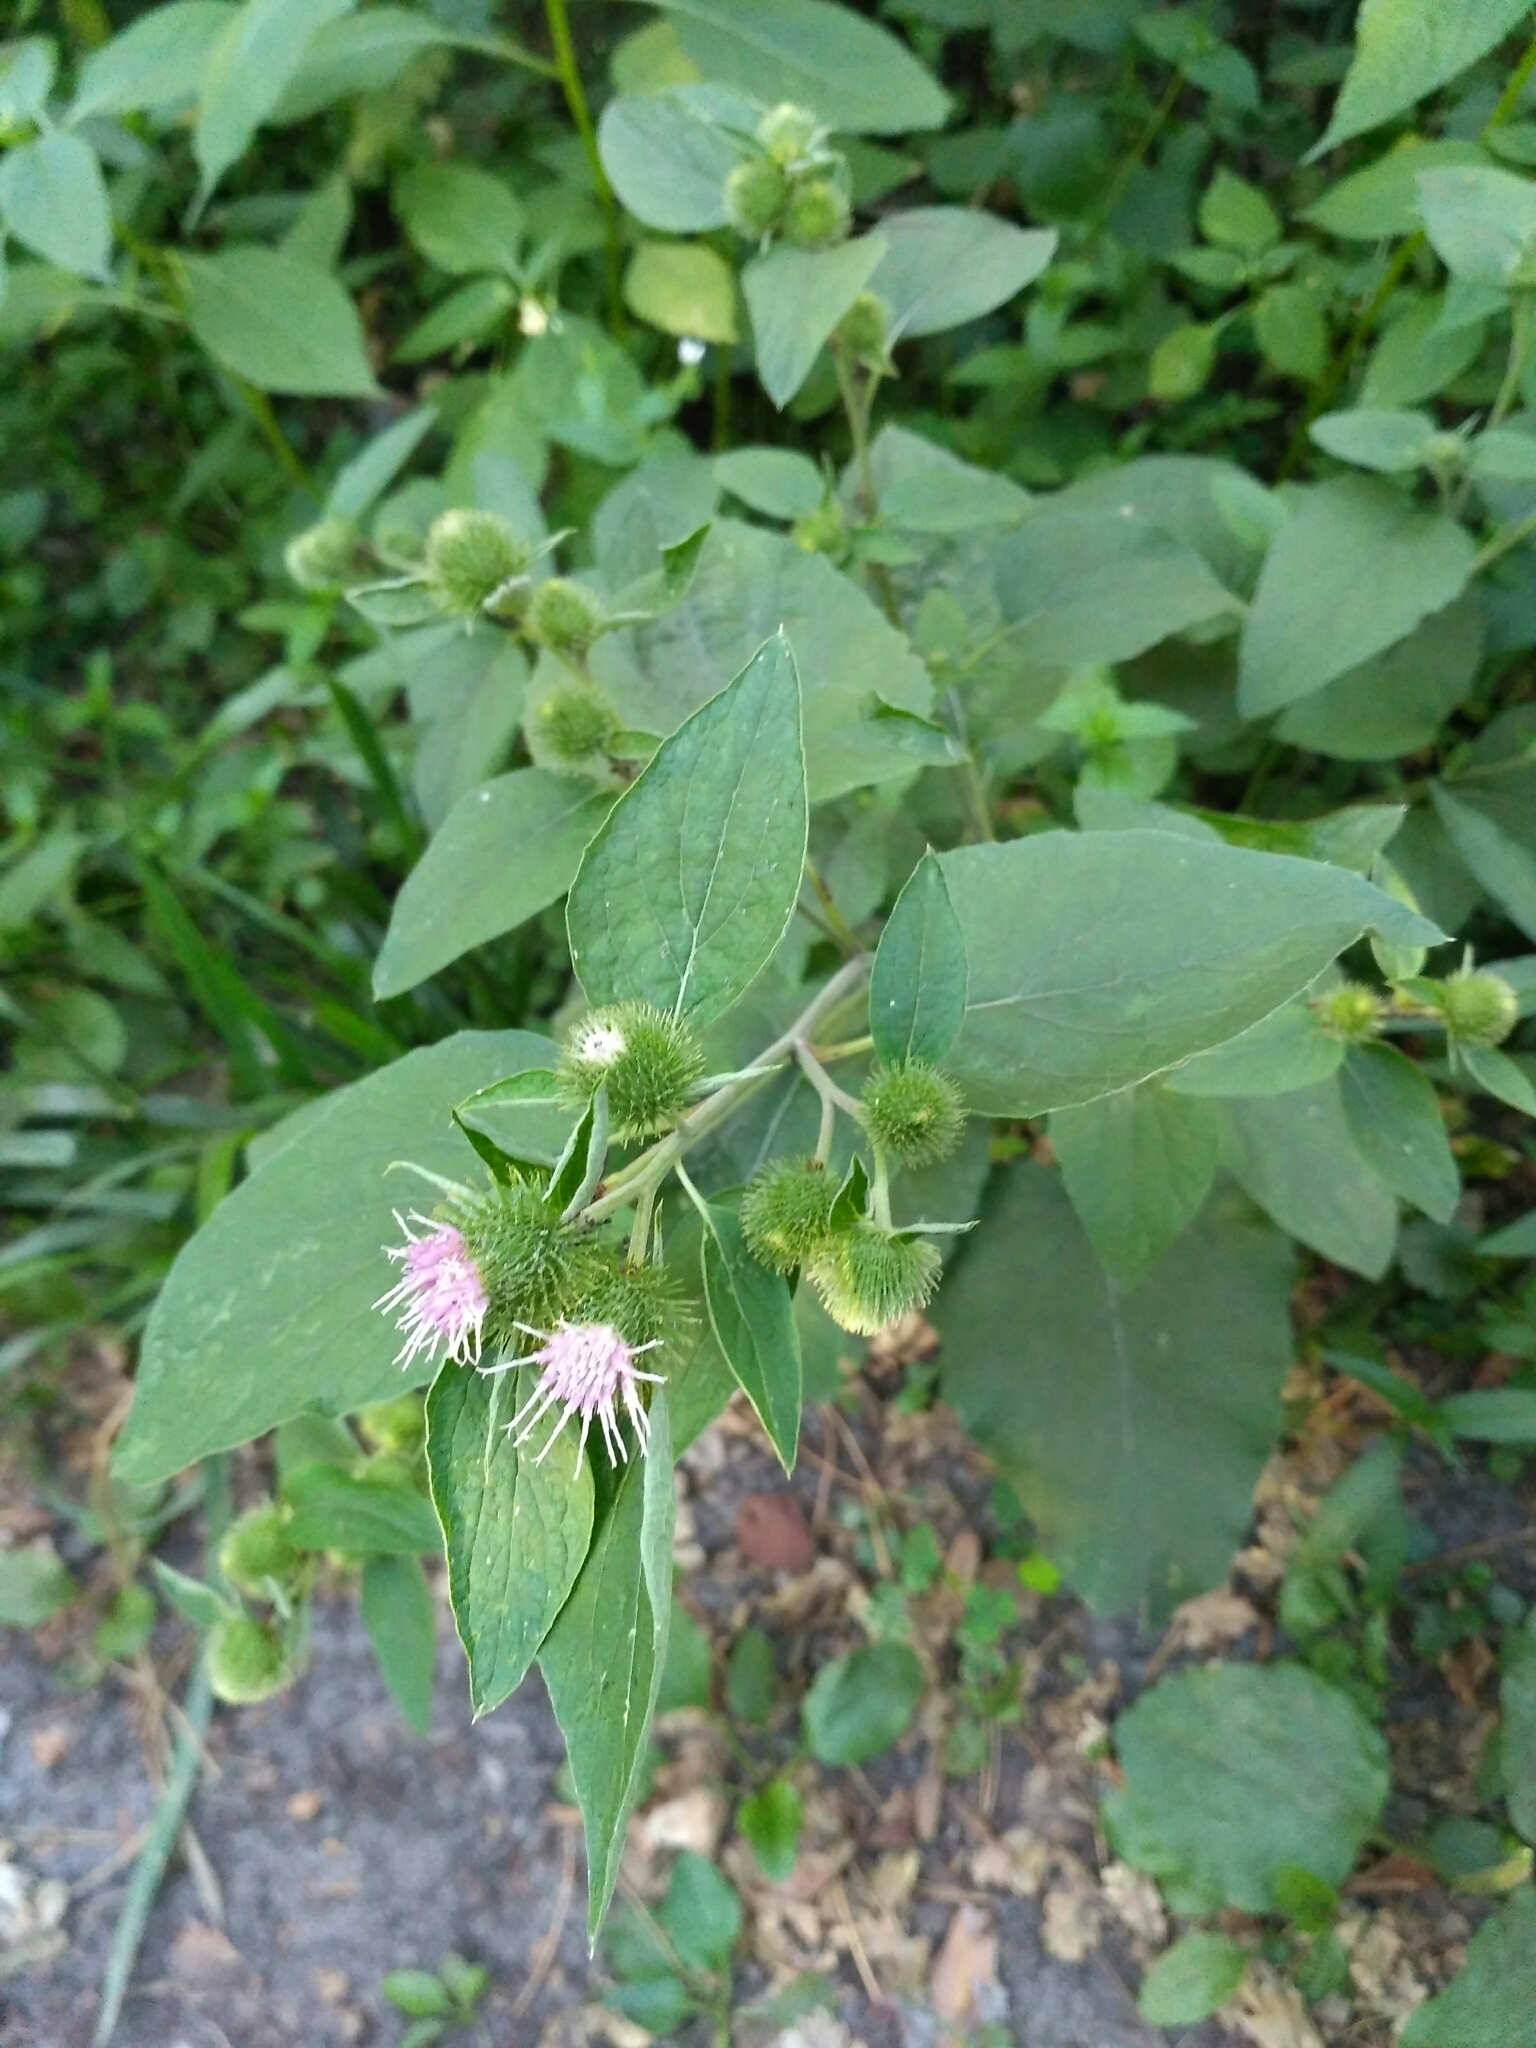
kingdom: Plantae
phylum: Tracheophyta
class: Magnoliopsida
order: Asterales
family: Asteraceae
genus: Arctium
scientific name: Arctium minus
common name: Lesser burdock
